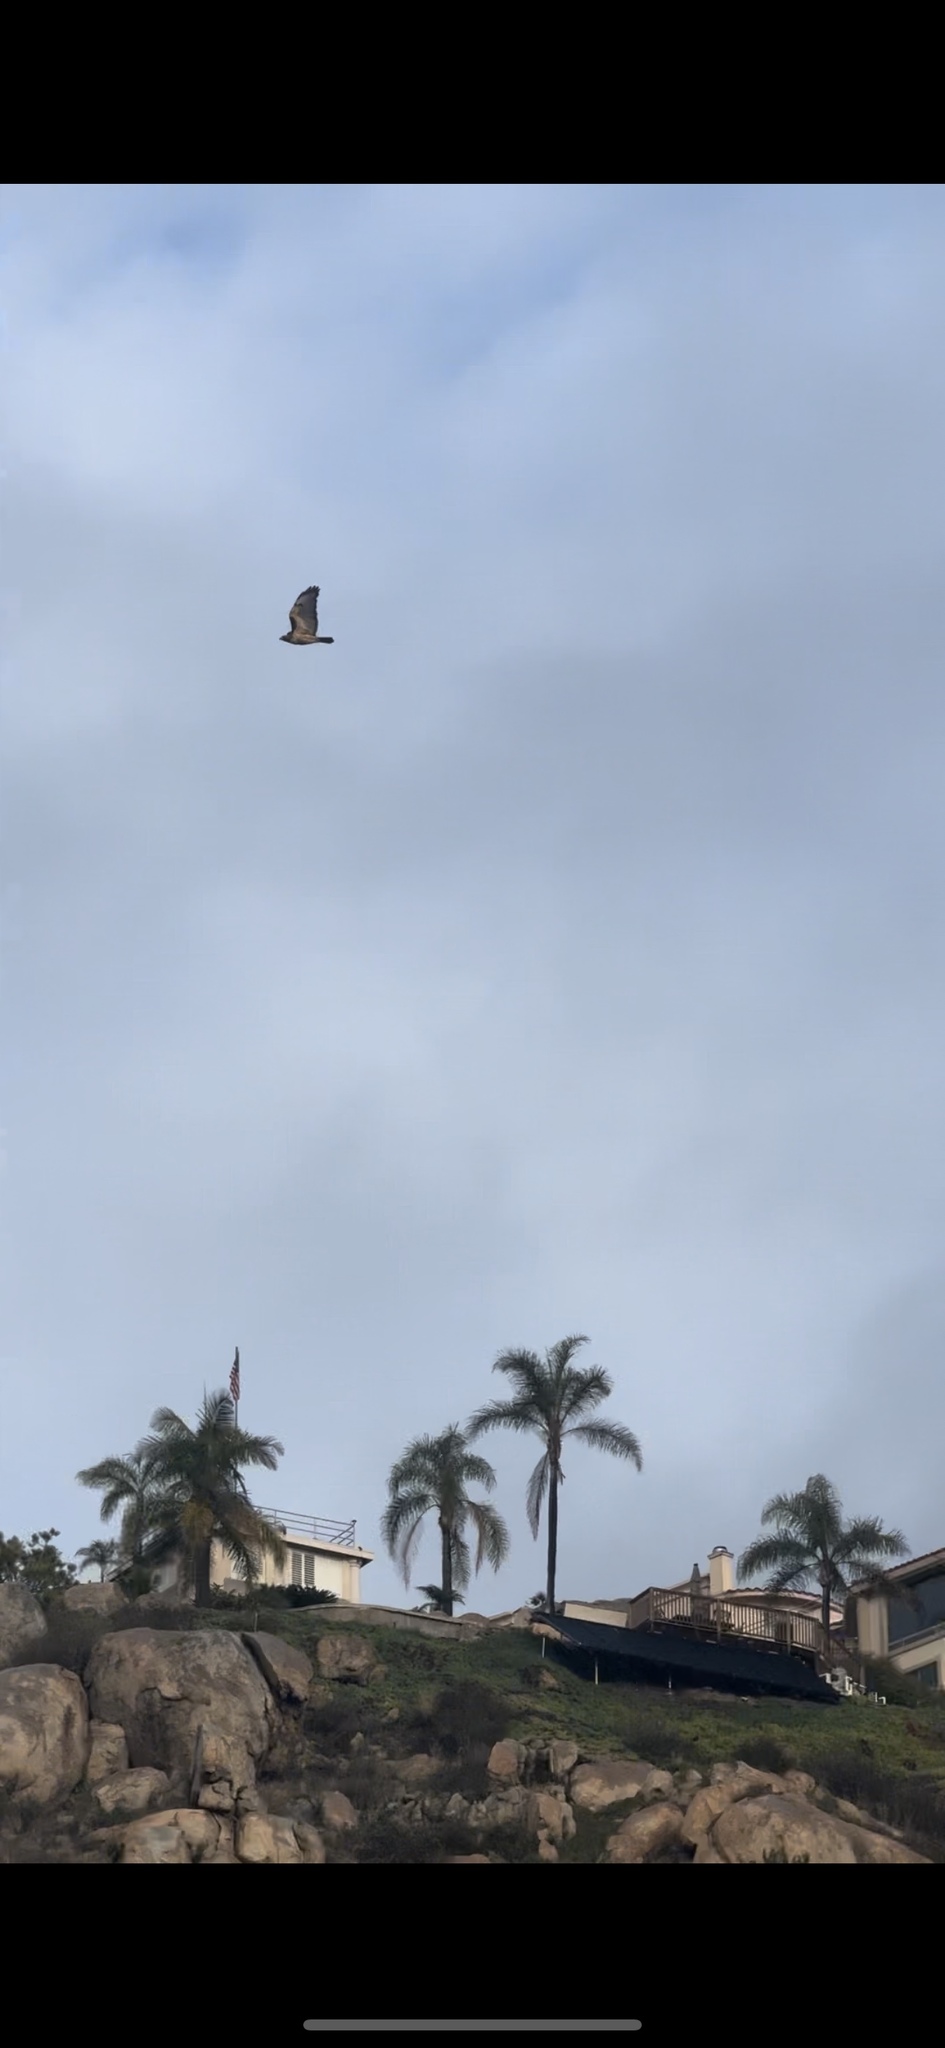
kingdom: Animalia
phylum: Chordata
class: Aves
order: Accipitriformes
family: Accipitridae
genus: Buteo
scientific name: Buteo jamaicensis
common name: Red-tailed hawk
